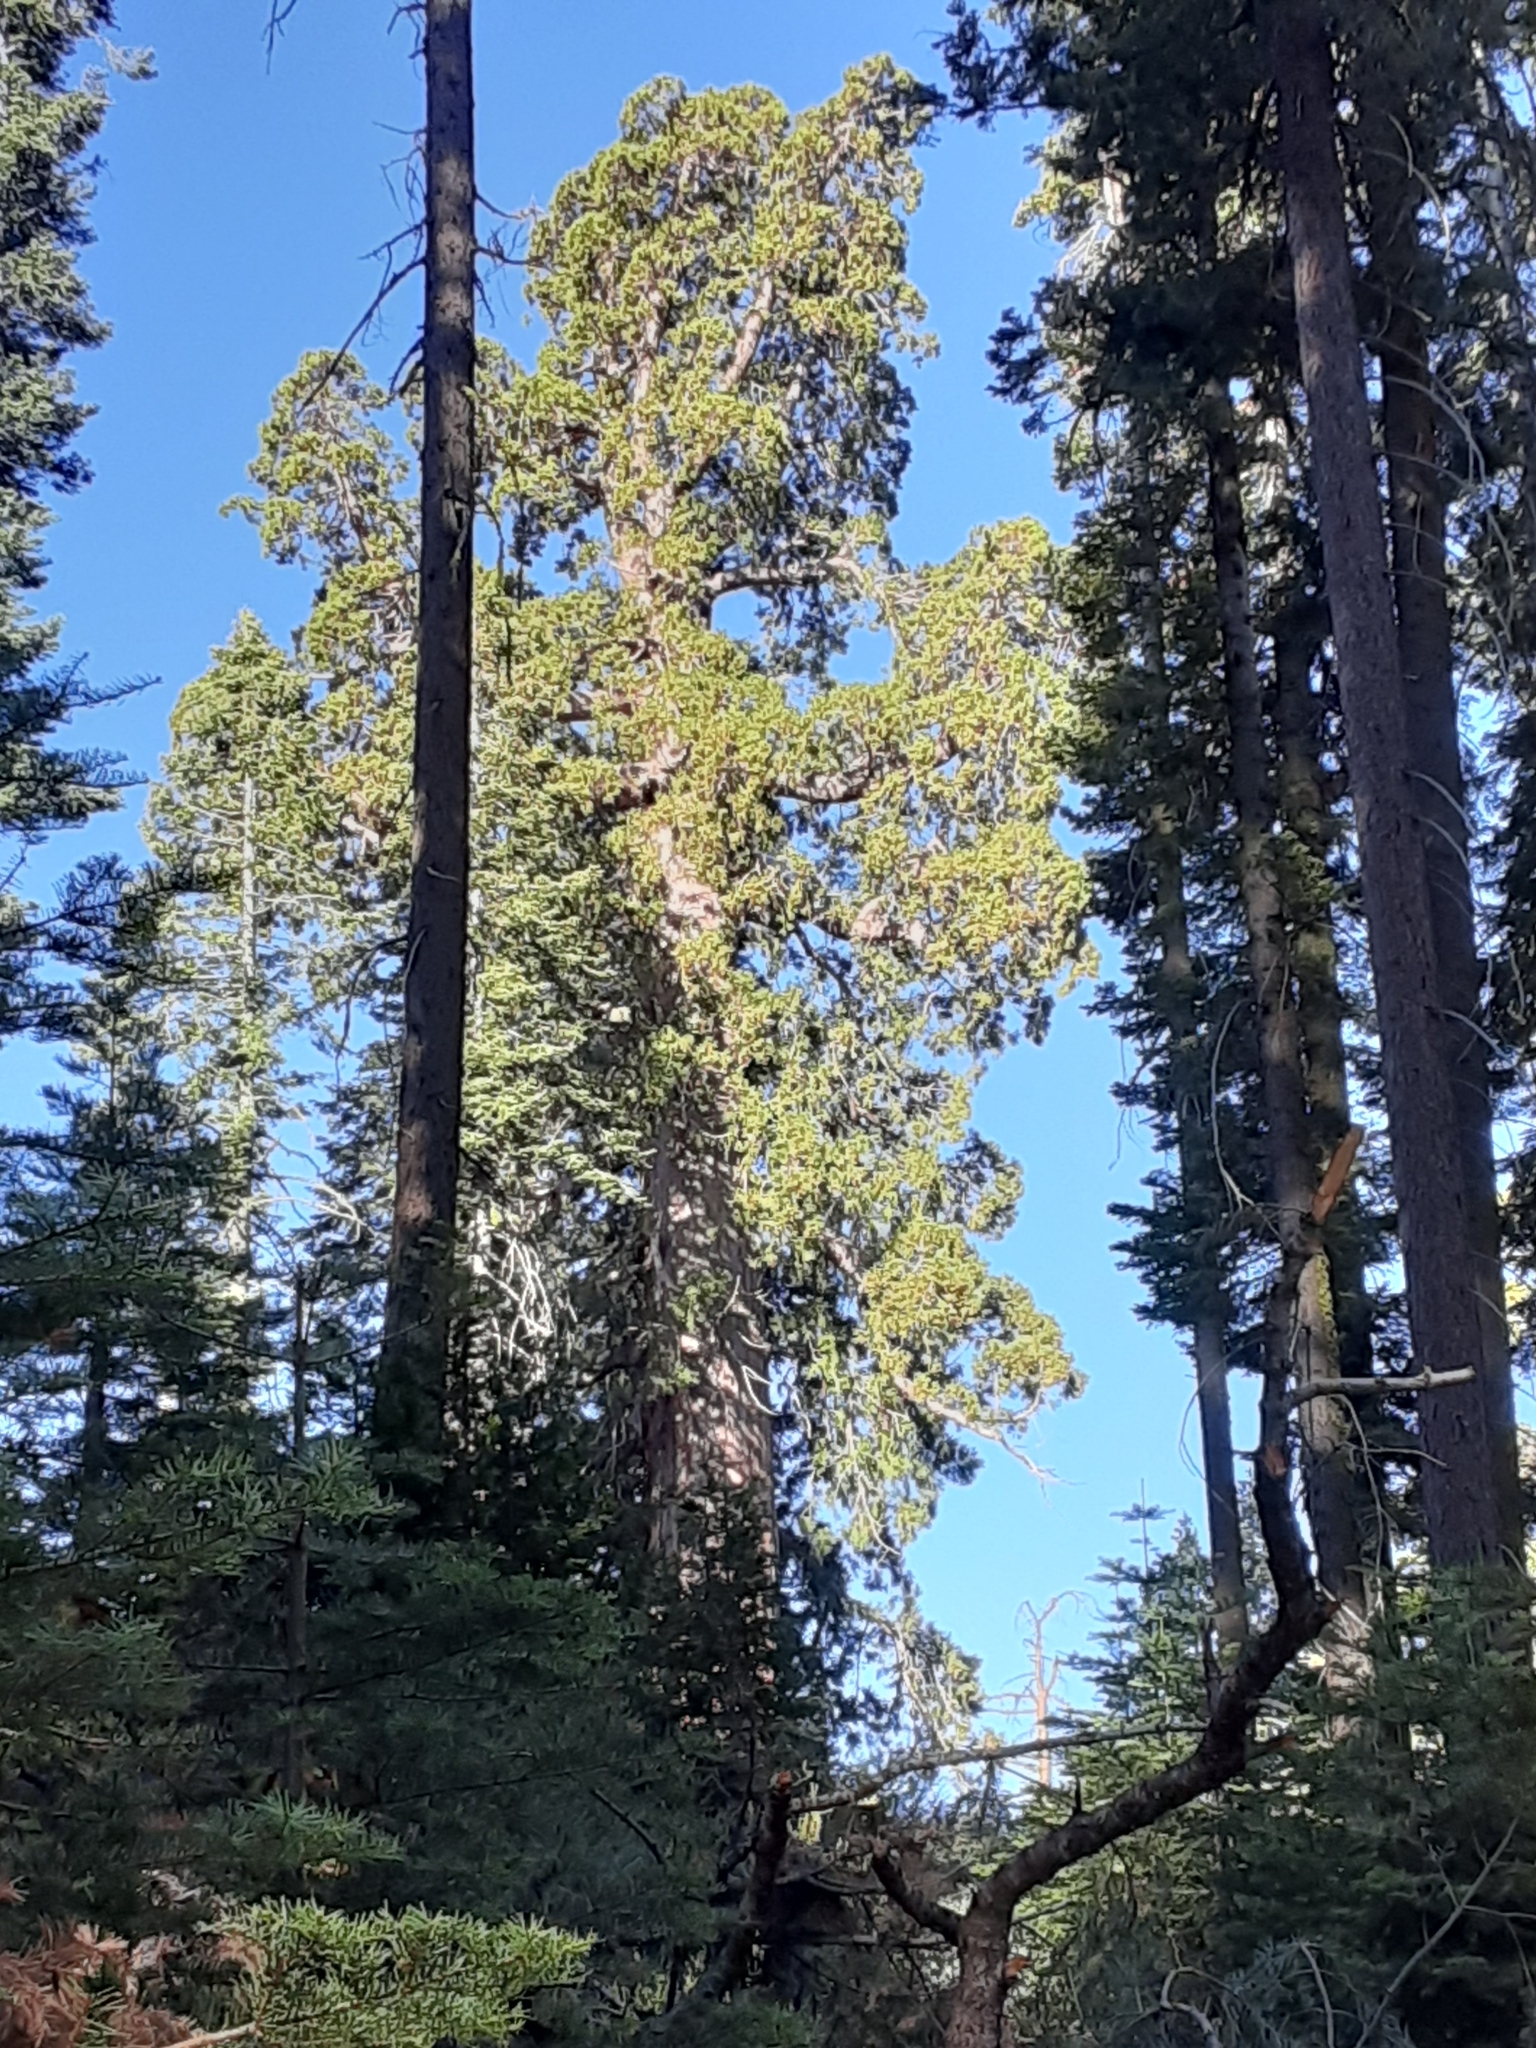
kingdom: Plantae
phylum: Tracheophyta
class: Pinopsida
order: Pinales
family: Cupressaceae
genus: Sequoiadendron
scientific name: Sequoiadendron giganteum
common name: Wellingtonia
